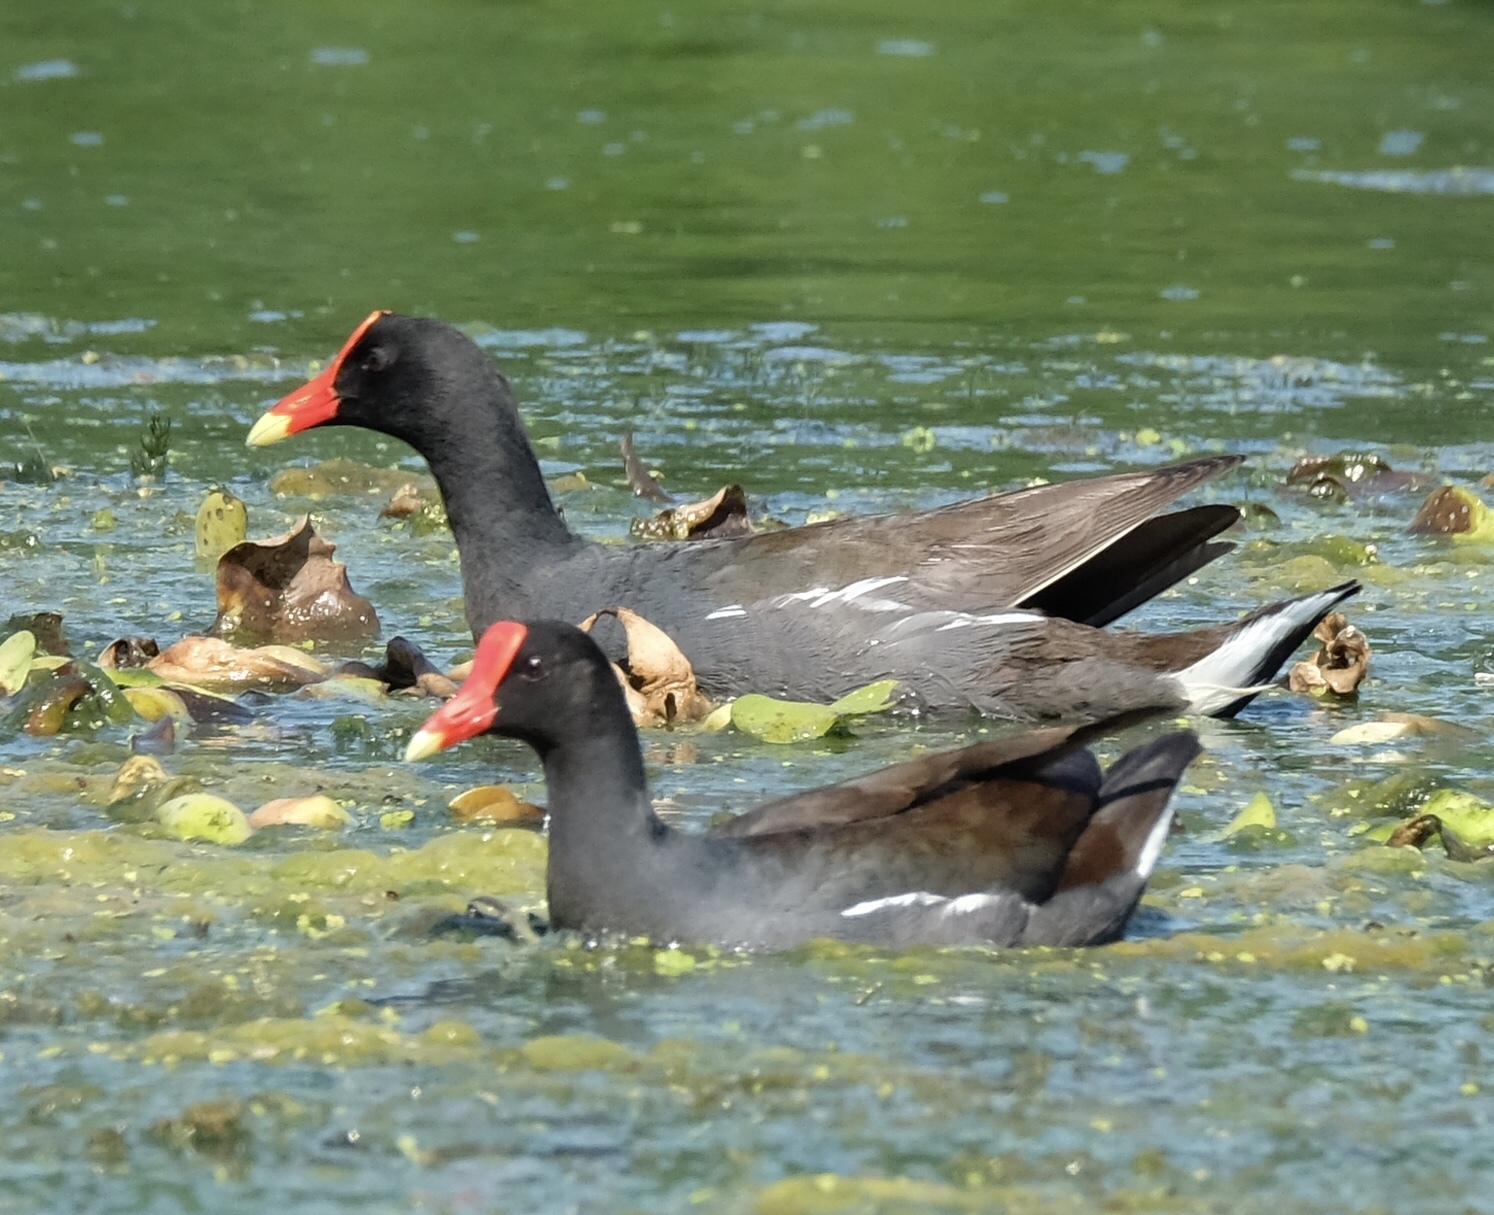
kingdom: Animalia
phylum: Chordata
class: Aves
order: Gruiformes
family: Rallidae
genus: Gallinula
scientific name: Gallinula chloropus
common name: Common moorhen
